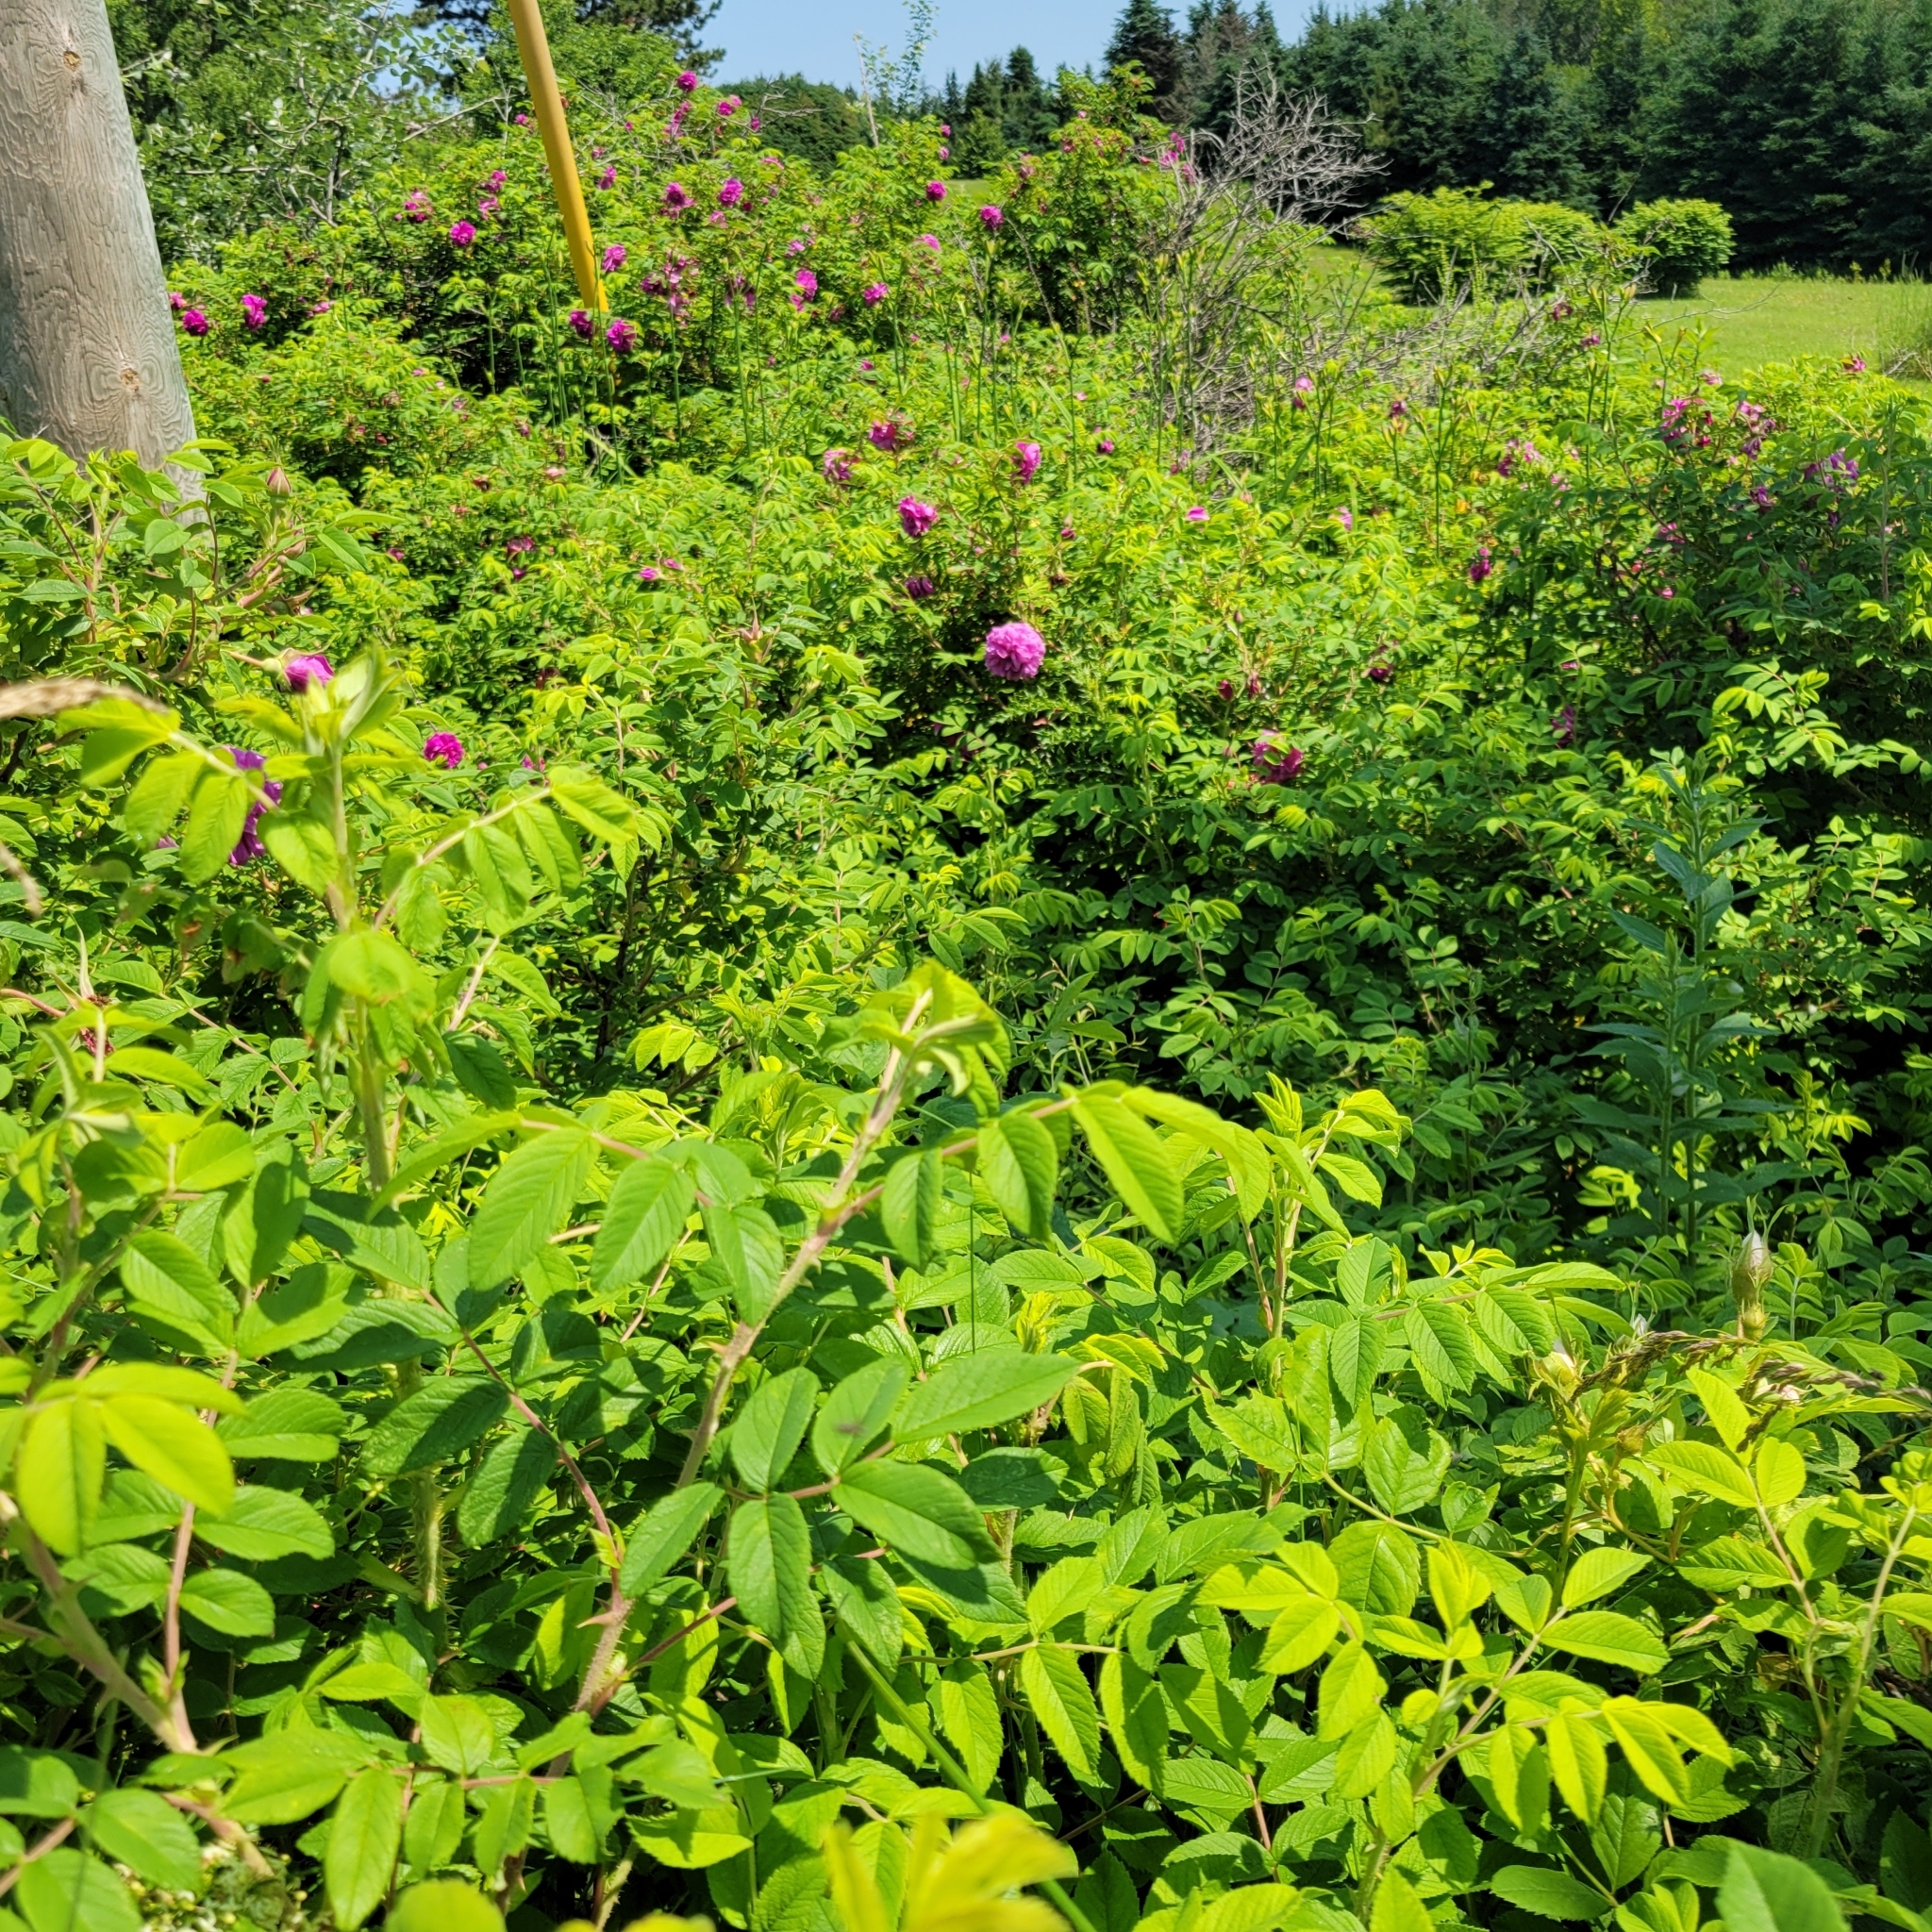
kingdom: Plantae
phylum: Tracheophyta
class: Magnoliopsida
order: Rosales
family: Rosaceae
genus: Rosa
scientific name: Rosa rugosa
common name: Japanese rose
